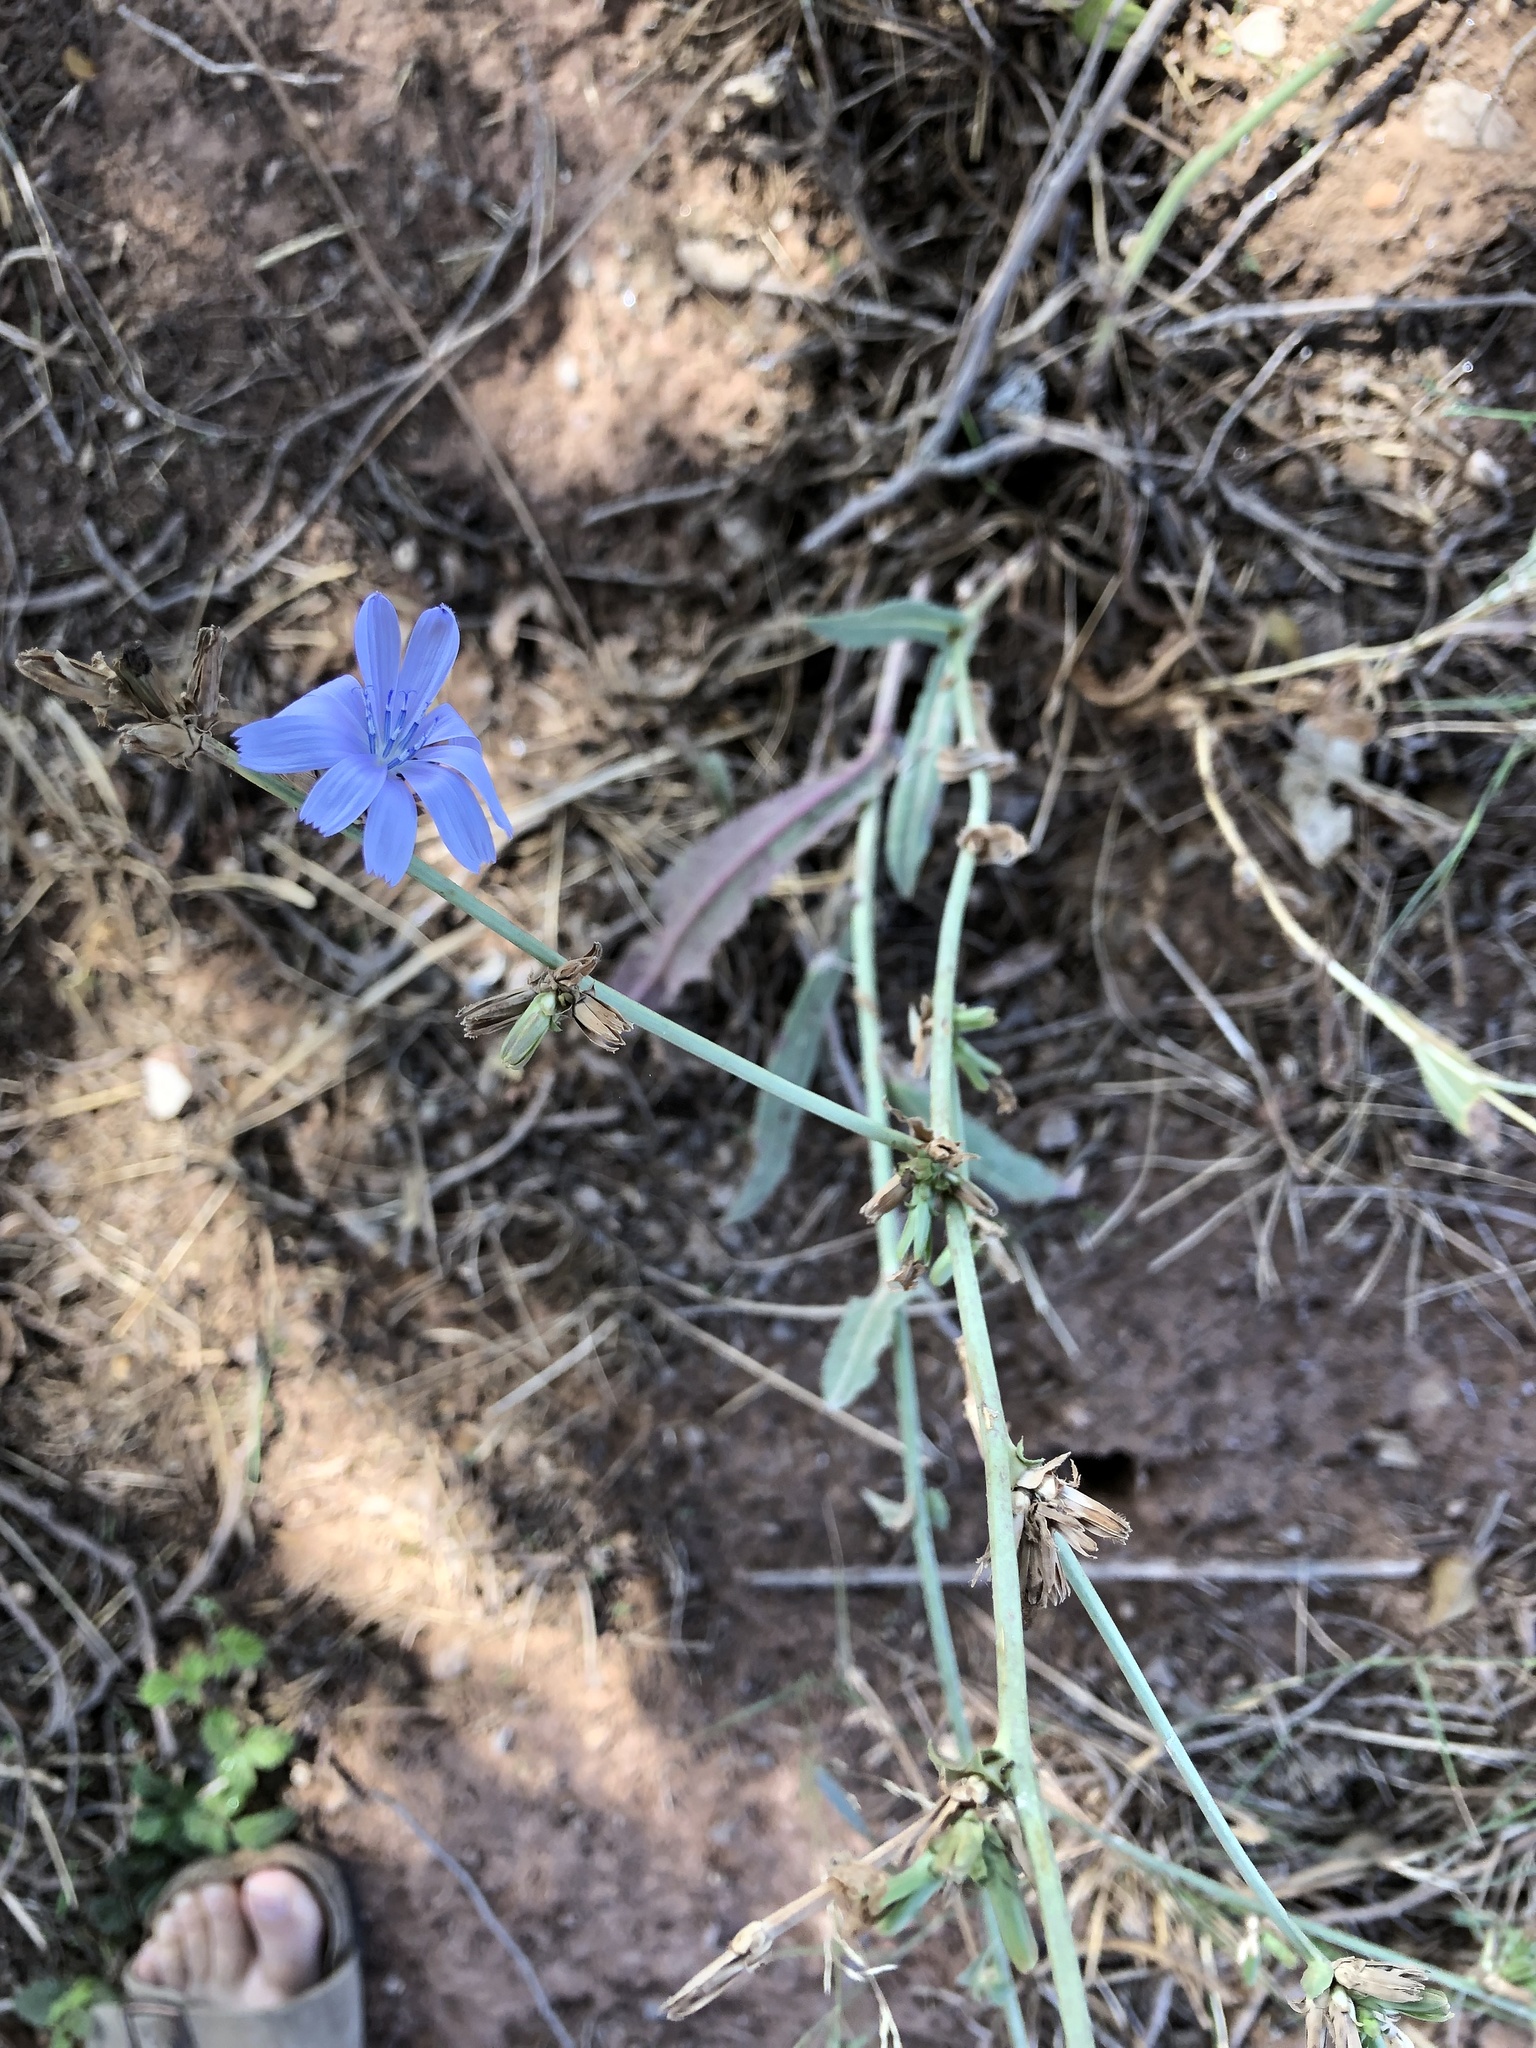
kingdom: Plantae
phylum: Tracheophyta
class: Magnoliopsida
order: Asterales
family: Asteraceae
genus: Cichorium
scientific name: Cichorium intybus
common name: Chicory
